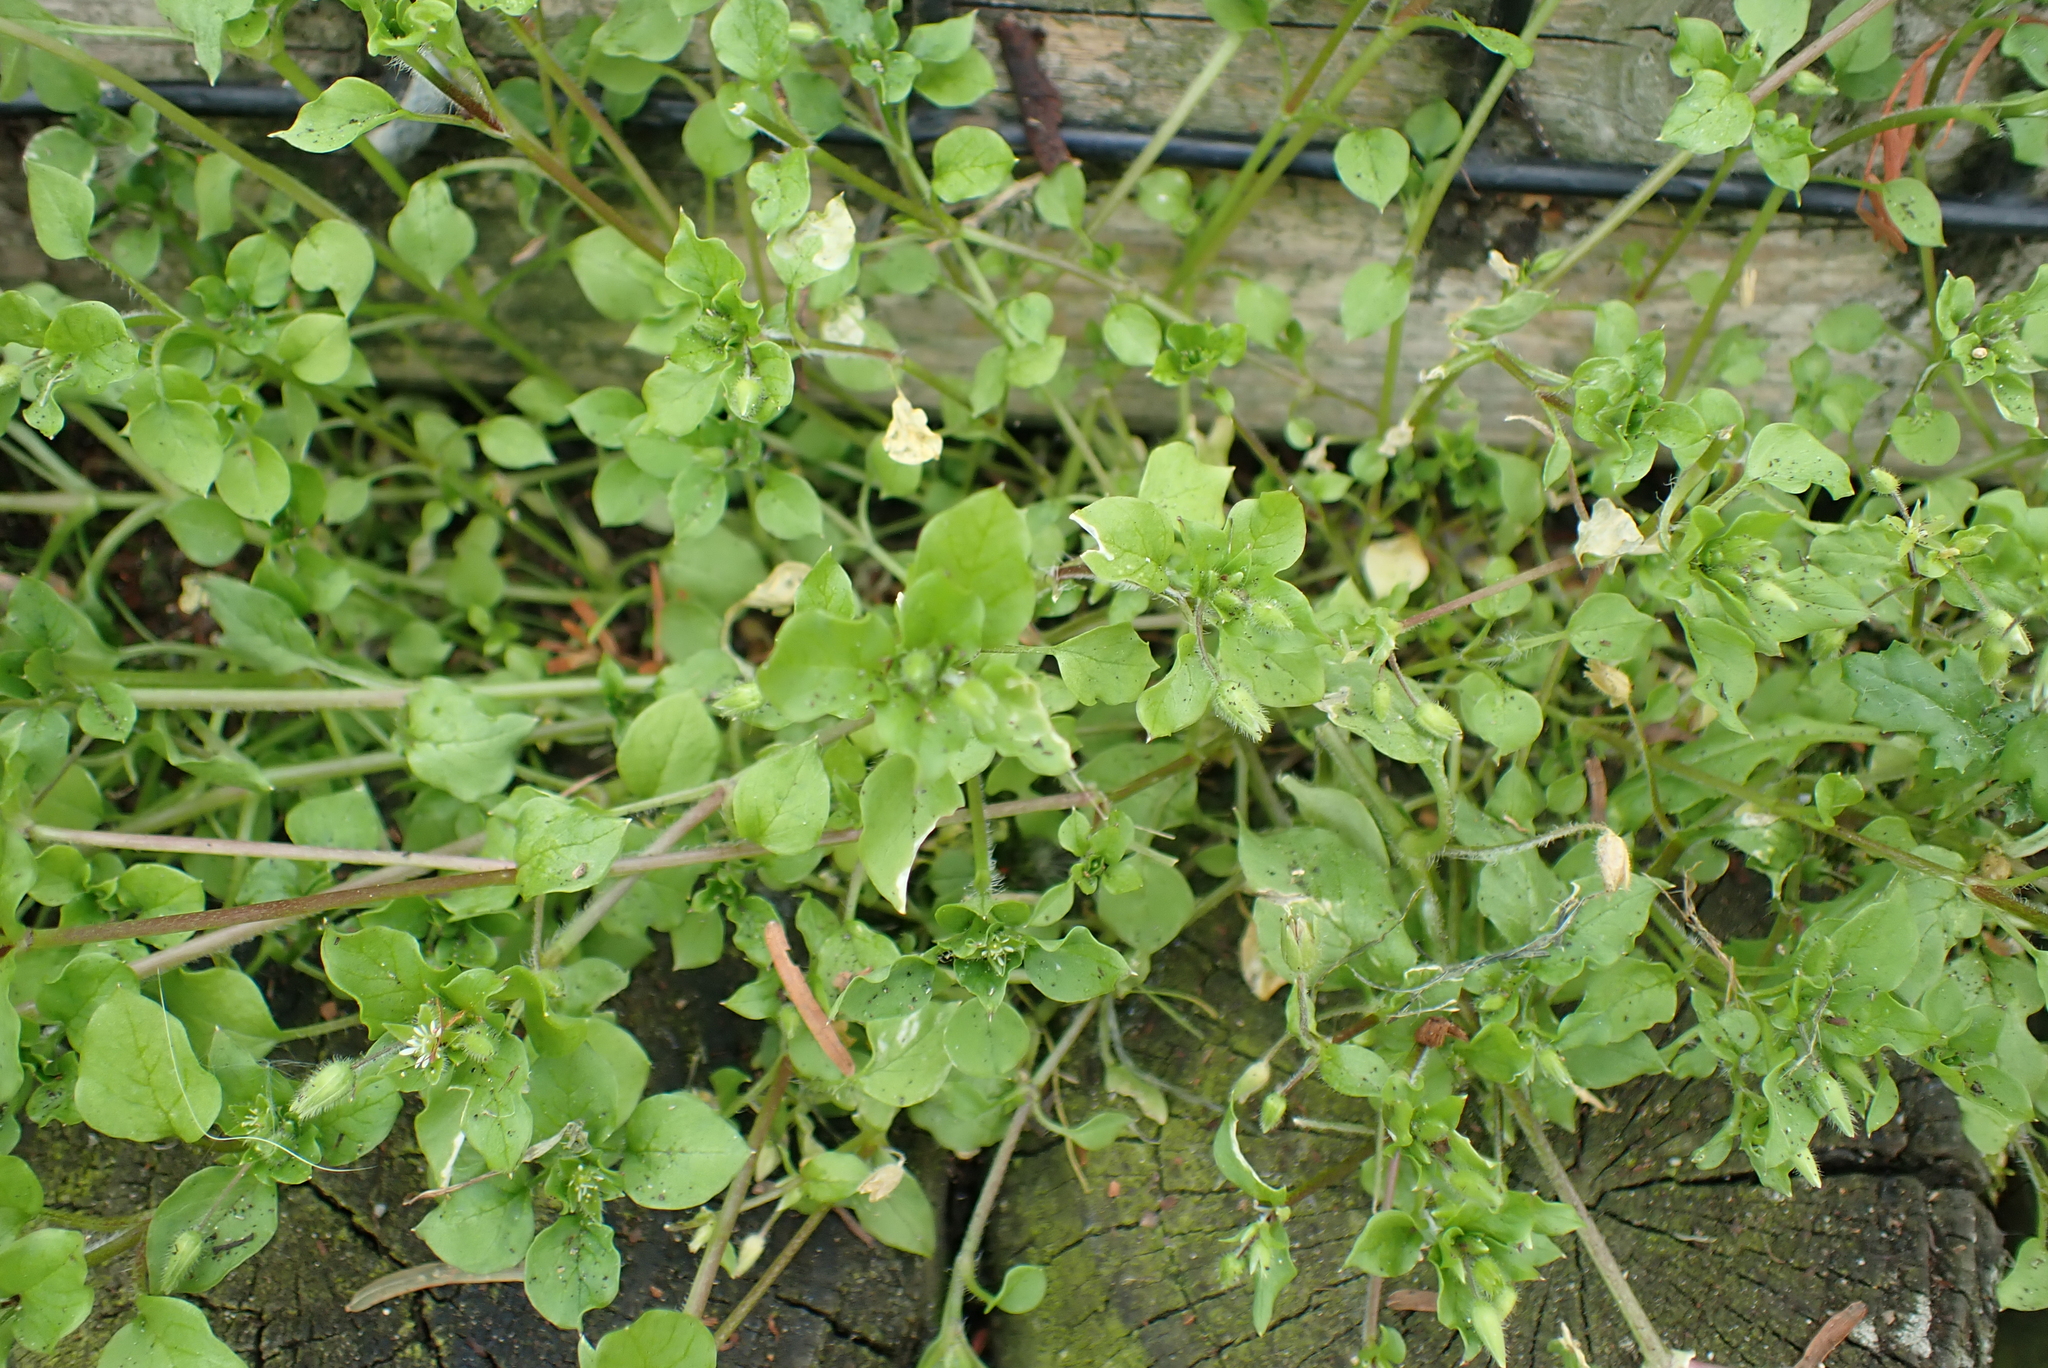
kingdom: Plantae
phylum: Tracheophyta
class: Magnoliopsida
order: Caryophyllales
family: Caryophyllaceae
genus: Stellaria
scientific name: Stellaria media
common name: Common chickweed
